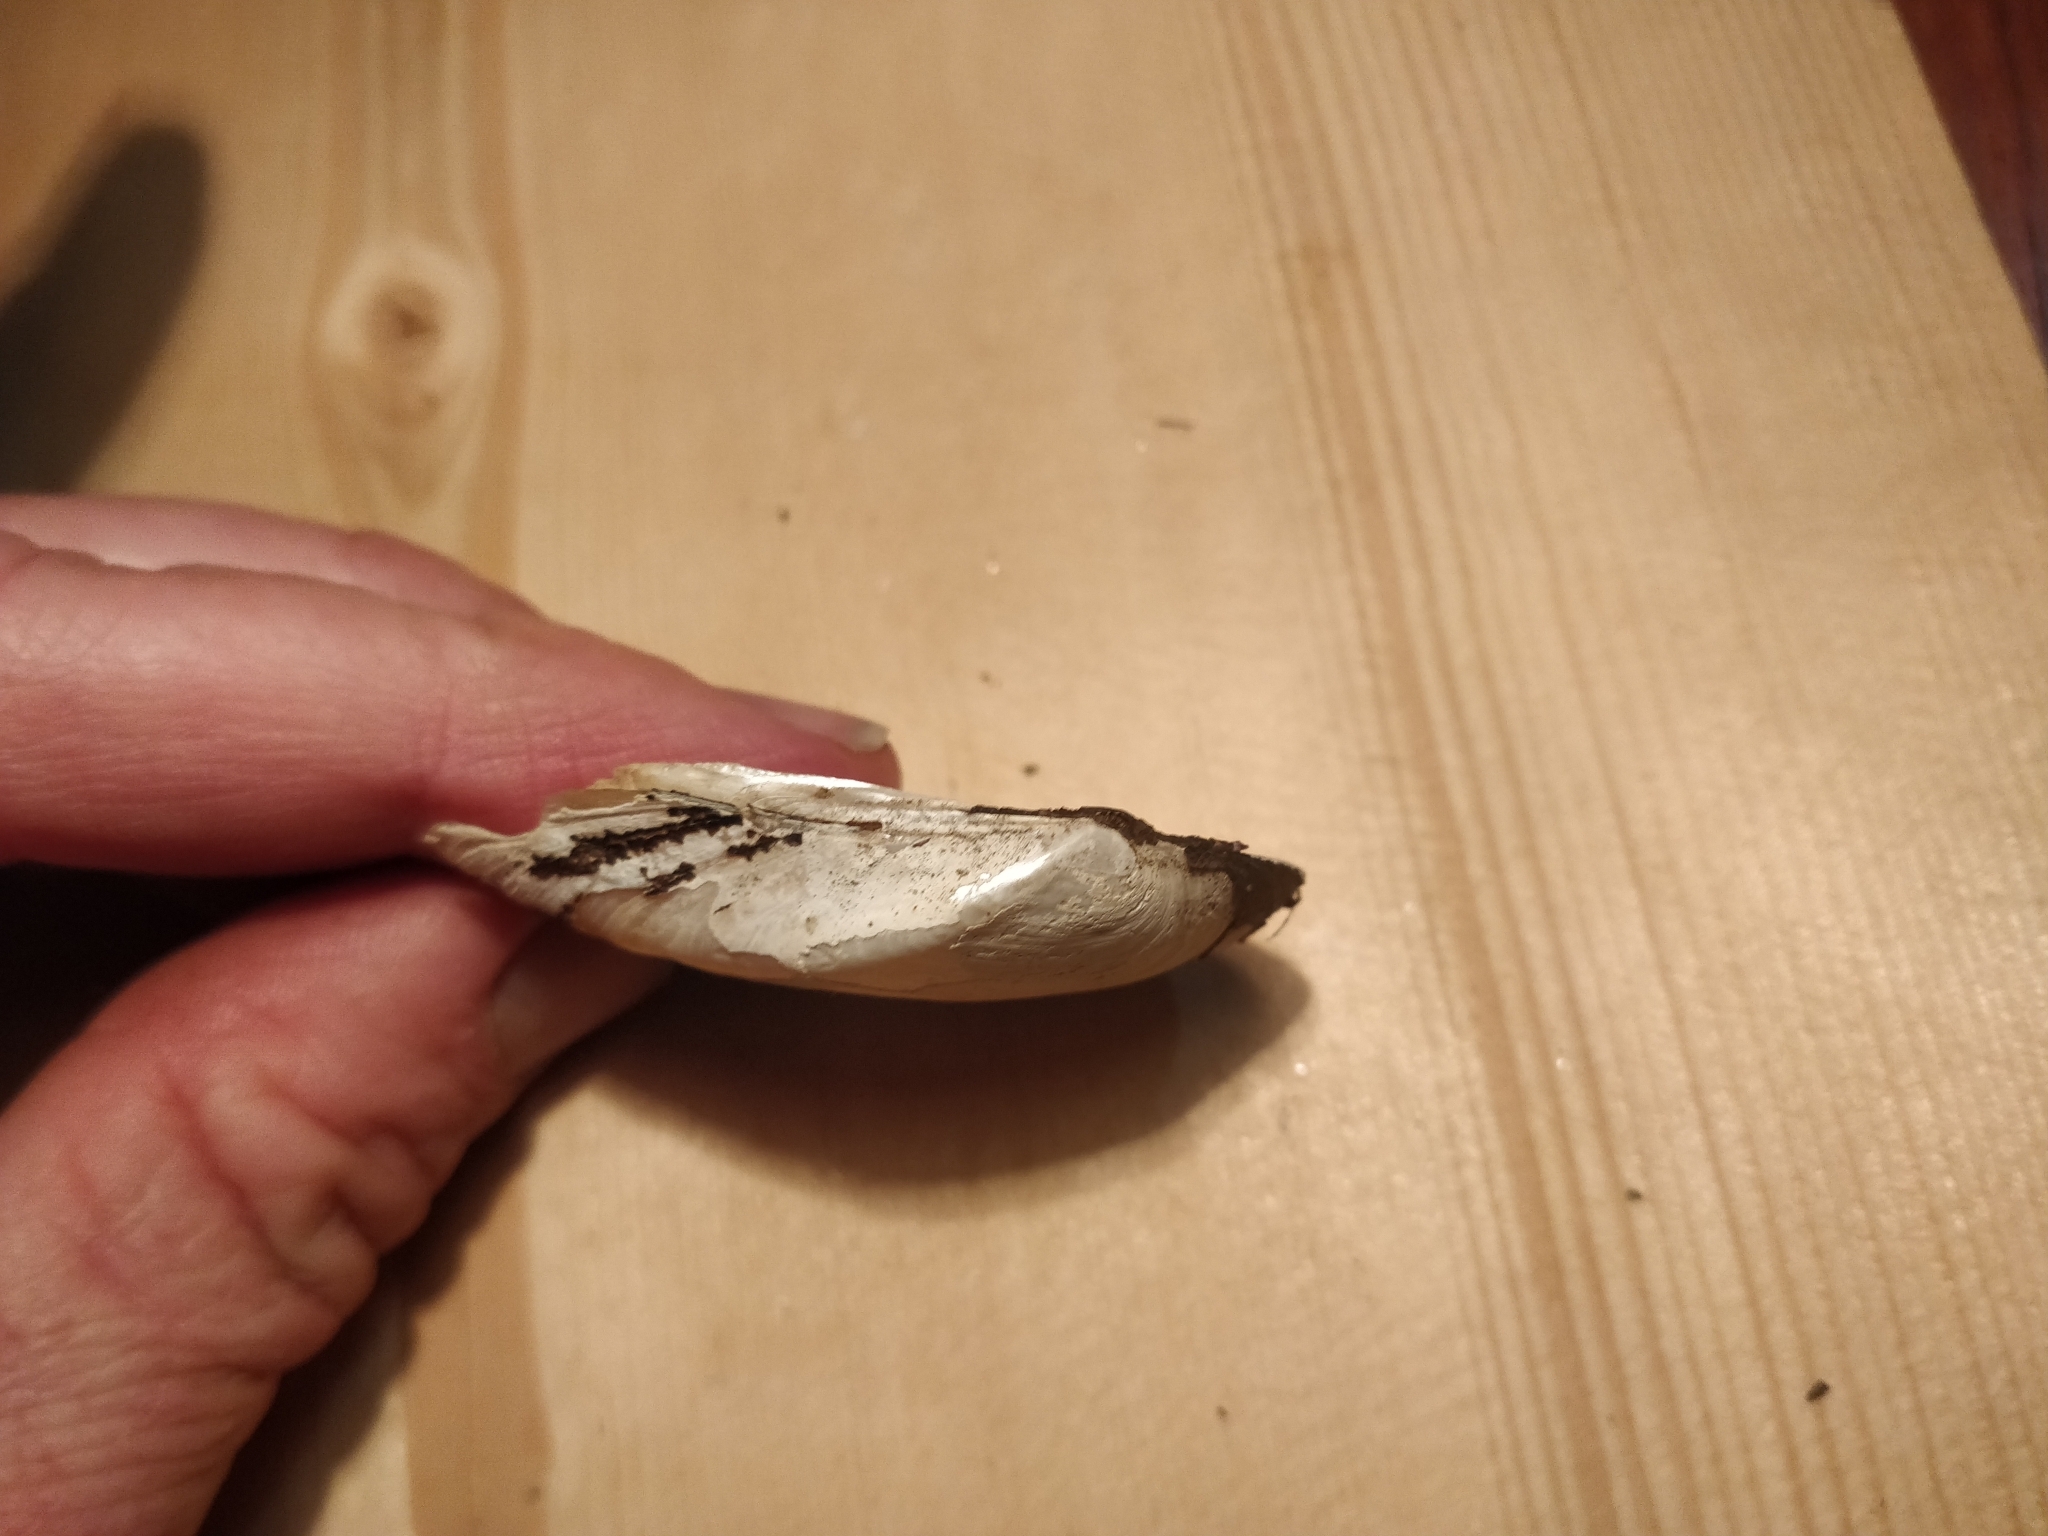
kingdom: Animalia
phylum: Mollusca
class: Bivalvia
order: Unionida
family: Unionidae
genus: Truncilla
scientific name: Truncilla truncata
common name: Deertoe
